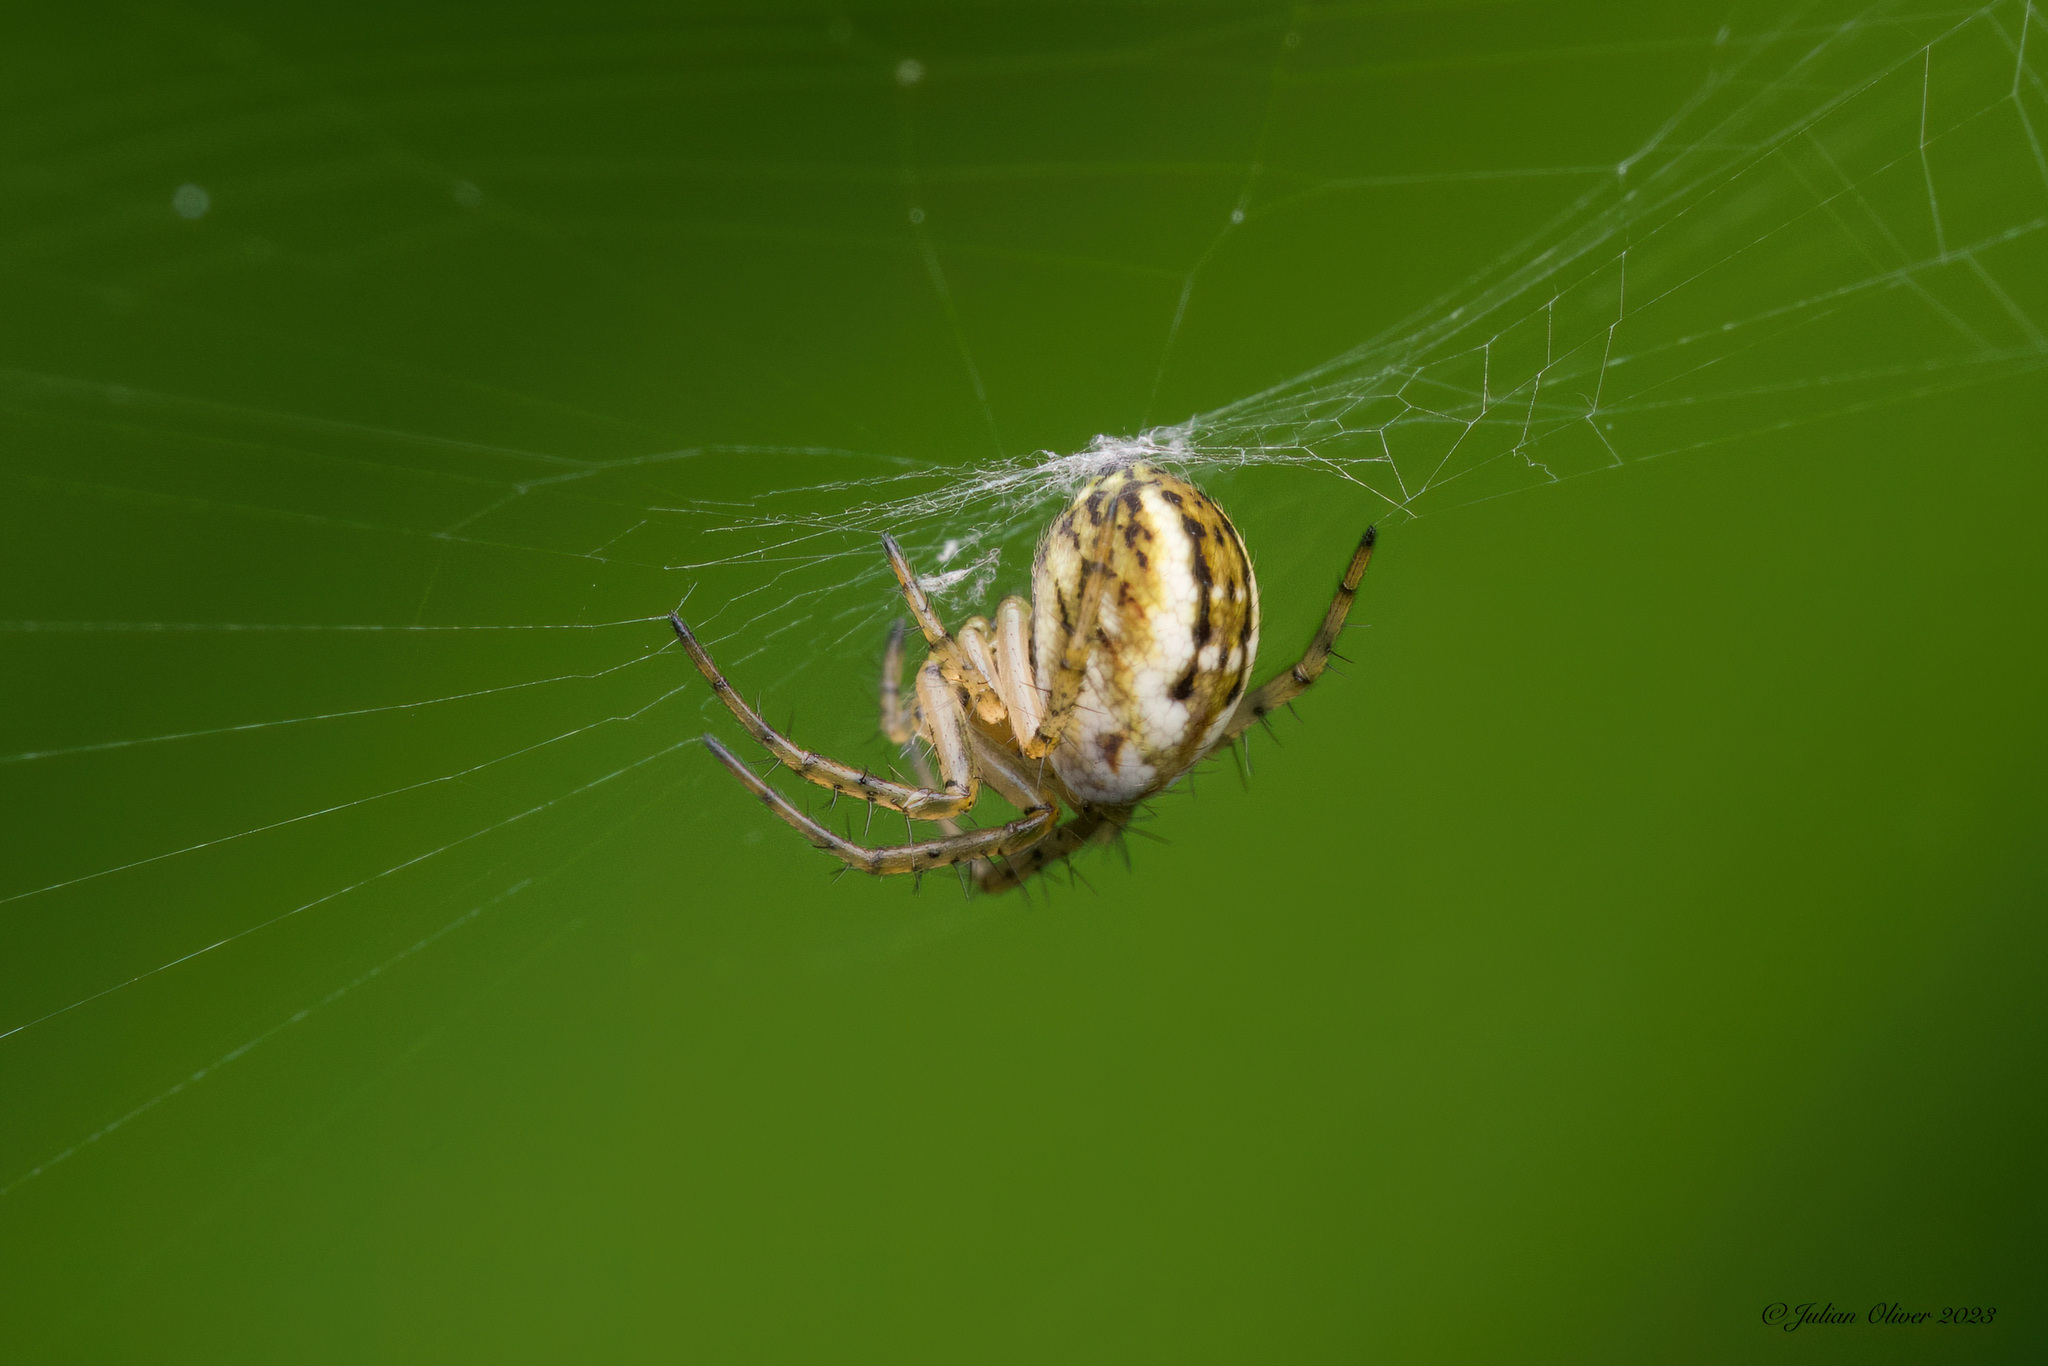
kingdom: Animalia
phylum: Arthropoda
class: Arachnida
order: Araneae
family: Araneidae
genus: Mangora
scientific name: Mangora acalypha
